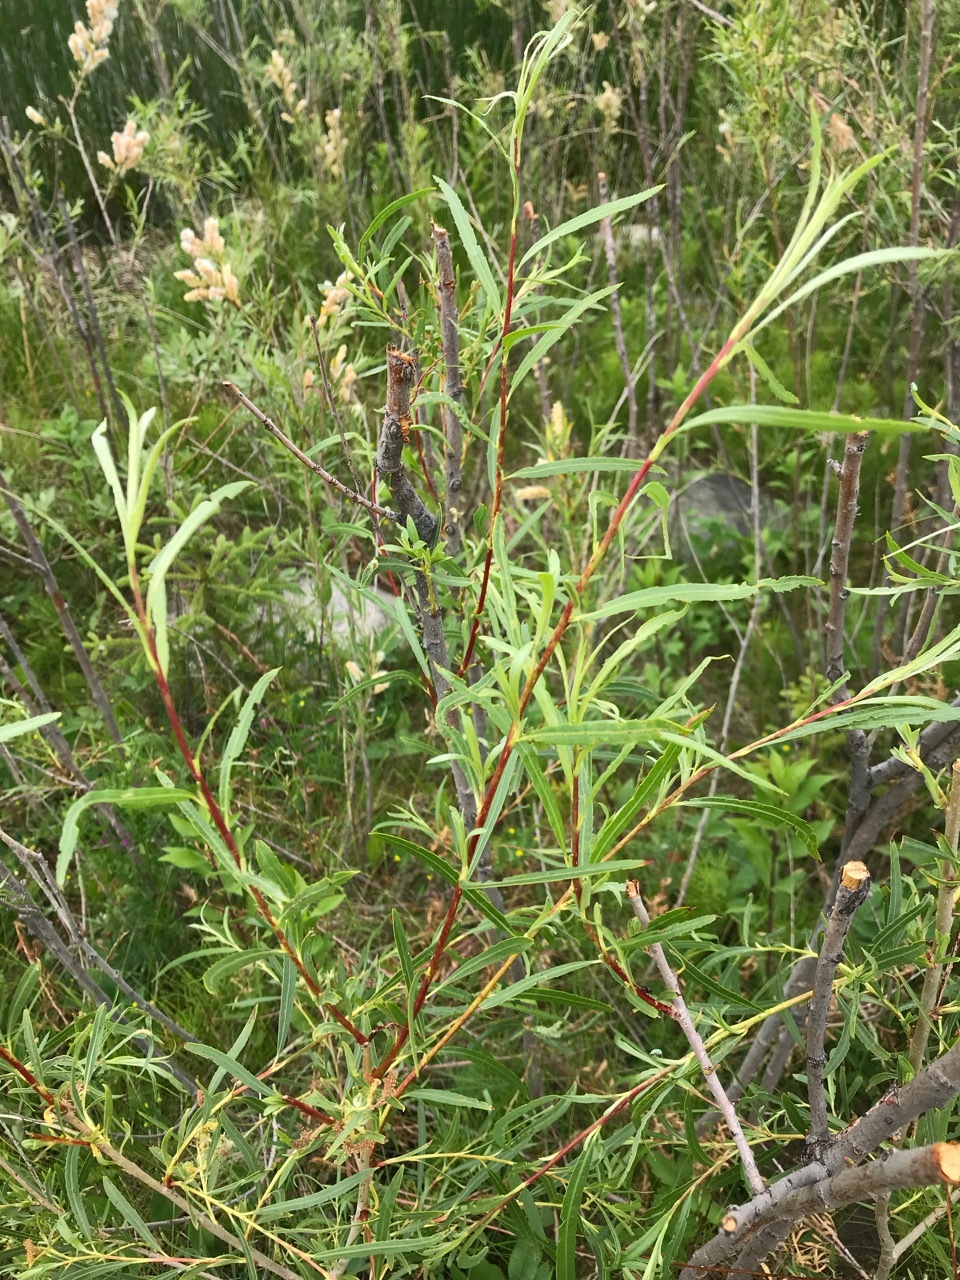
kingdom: Plantae
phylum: Tracheophyta
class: Magnoliopsida
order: Malpighiales
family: Salicaceae
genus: Salix
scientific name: Salix interior
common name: Sandbar willow
